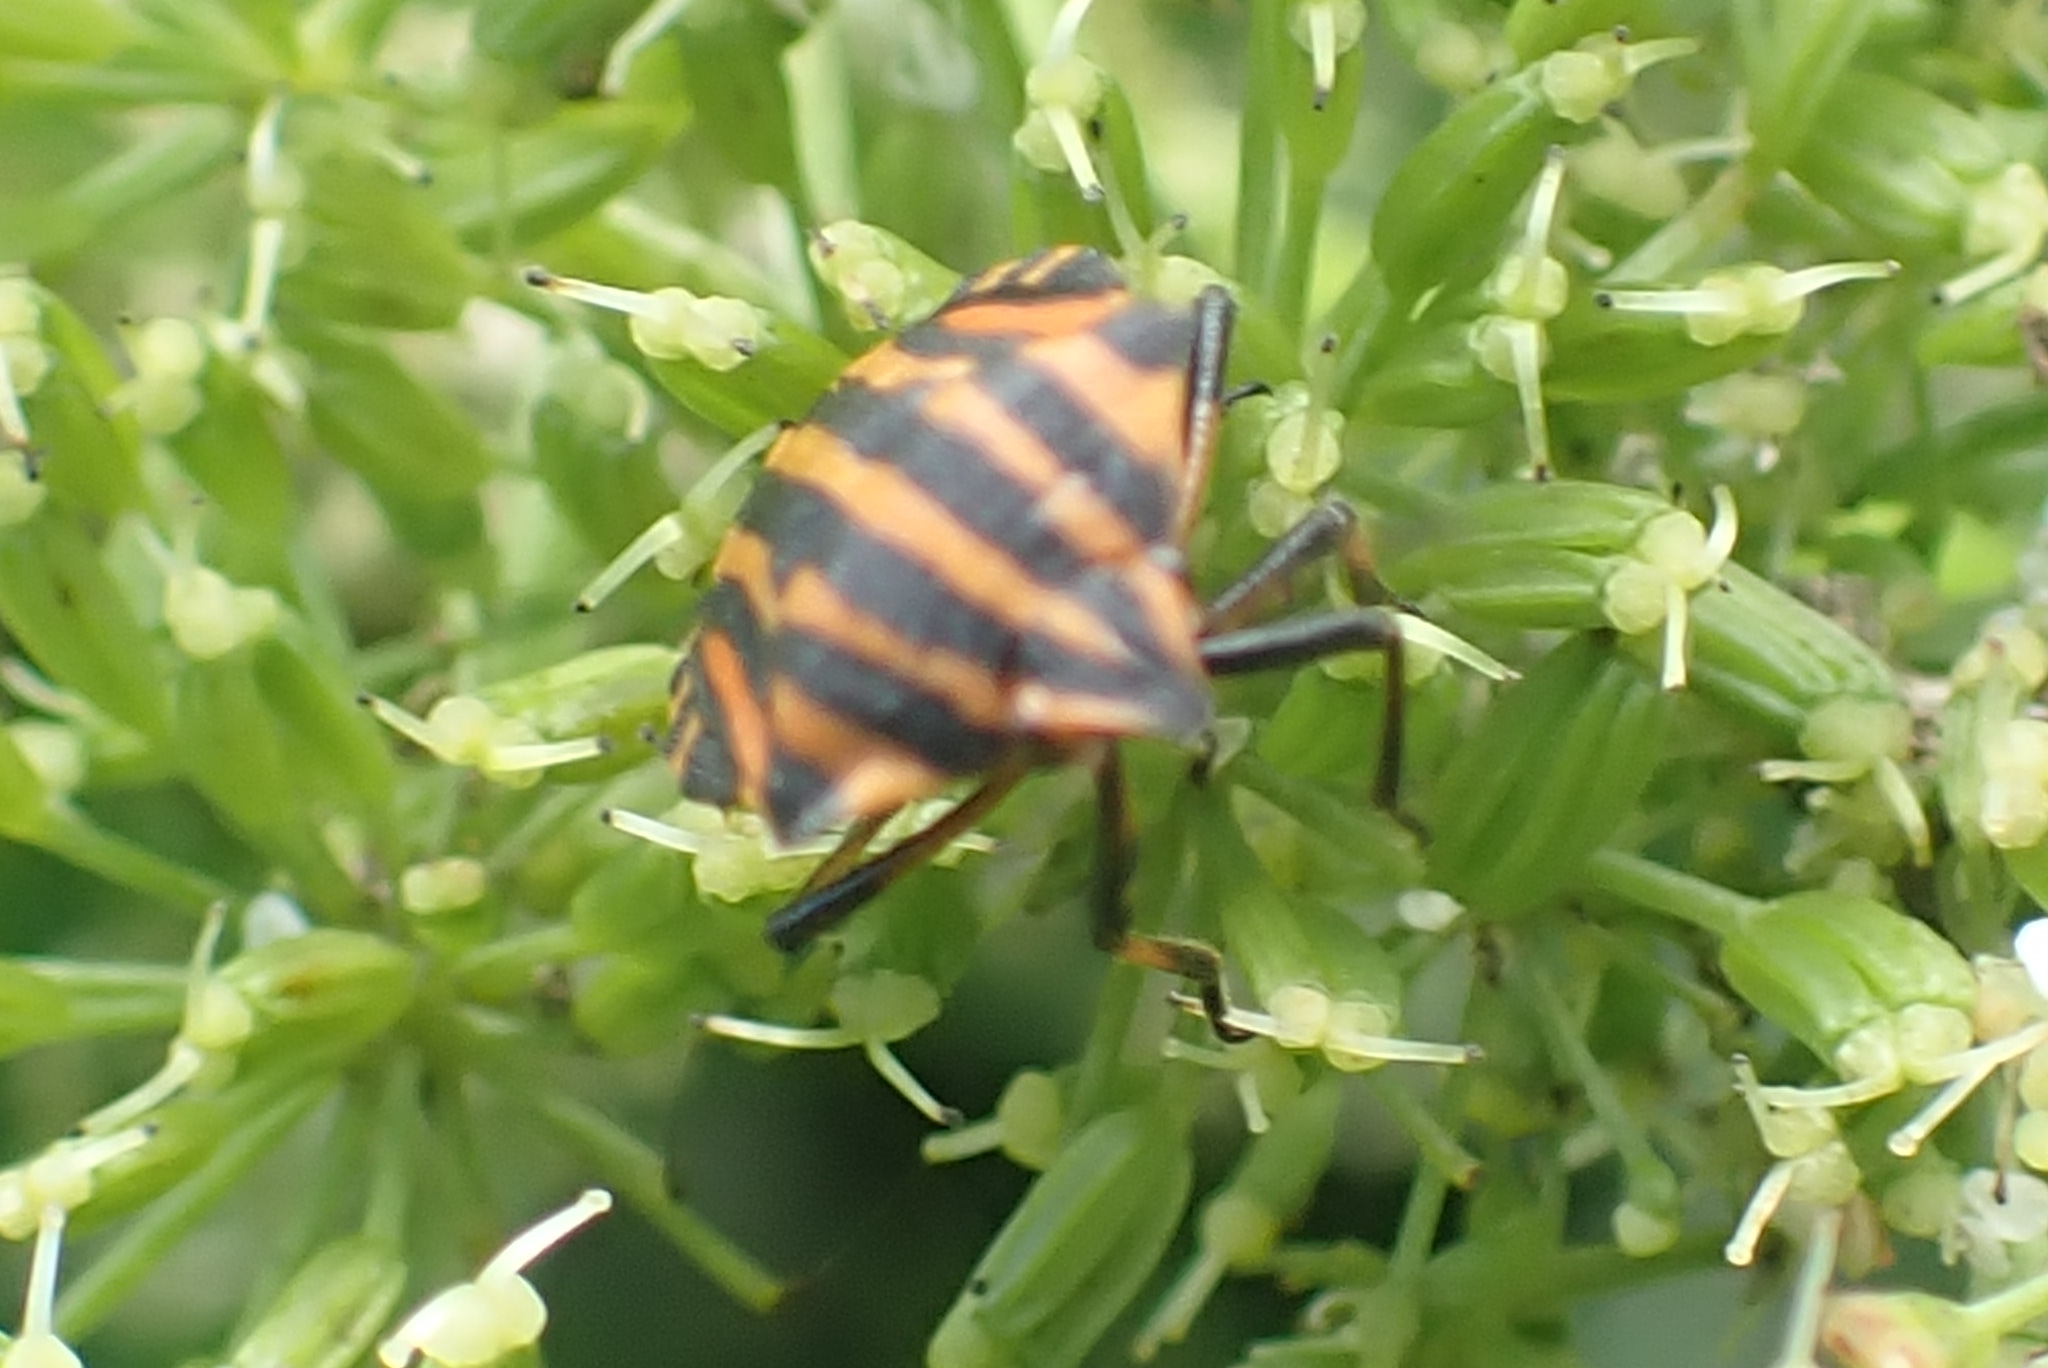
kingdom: Animalia
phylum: Arthropoda
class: Insecta
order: Hemiptera
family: Pentatomidae
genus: Graphosoma
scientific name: Graphosoma italicum
